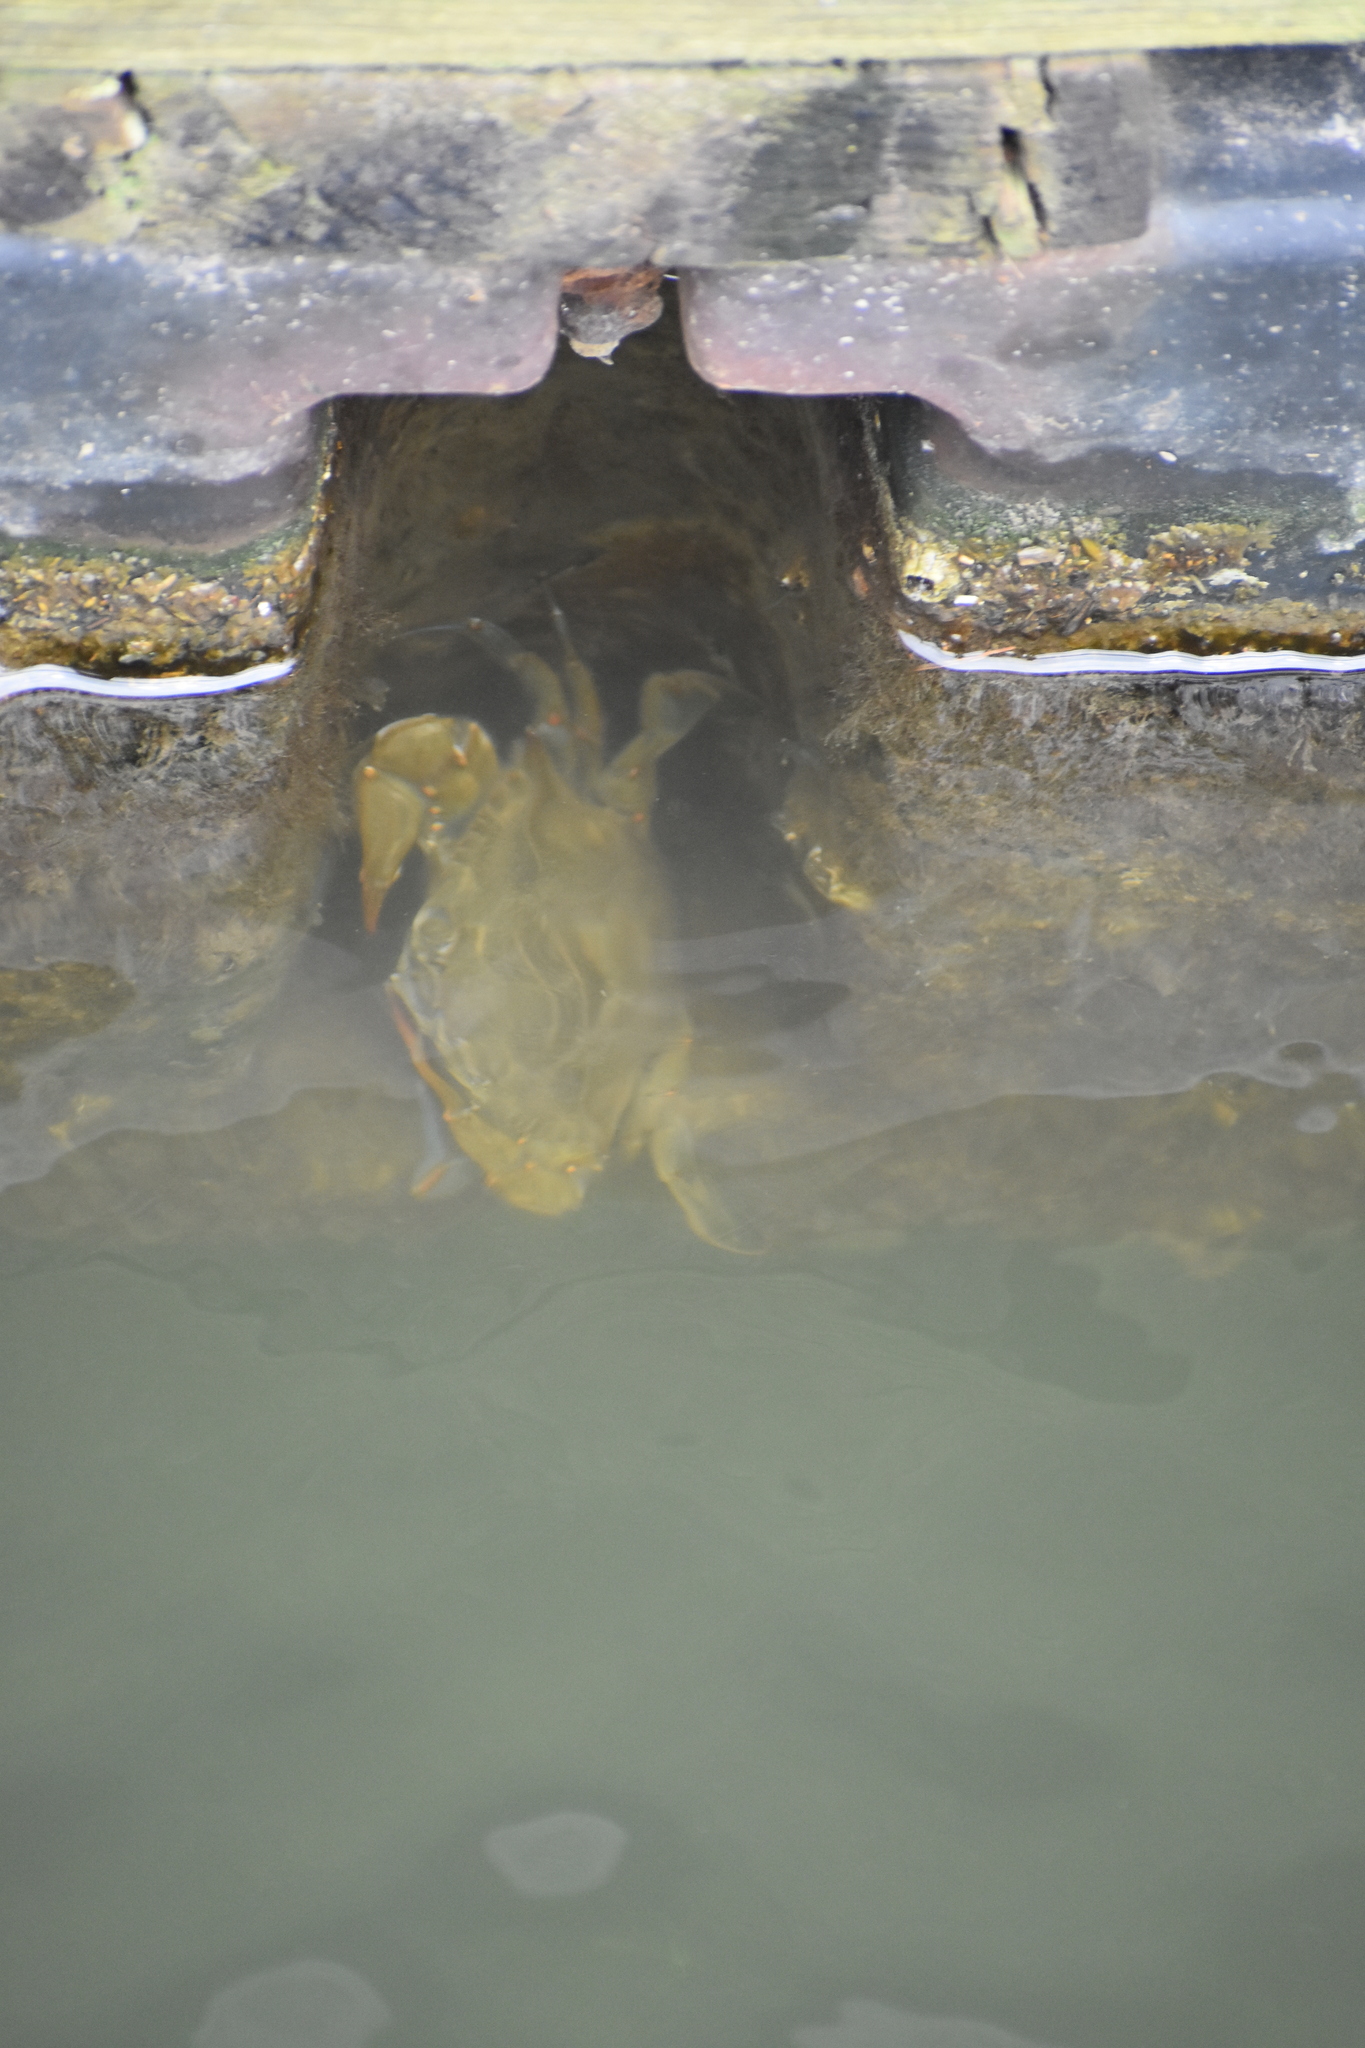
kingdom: Animalia
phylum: Arthropoda
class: Malacostraca
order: Decapoda
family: Portunidae
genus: Callinectes
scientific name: Callinectes sapidus
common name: Blue crab
